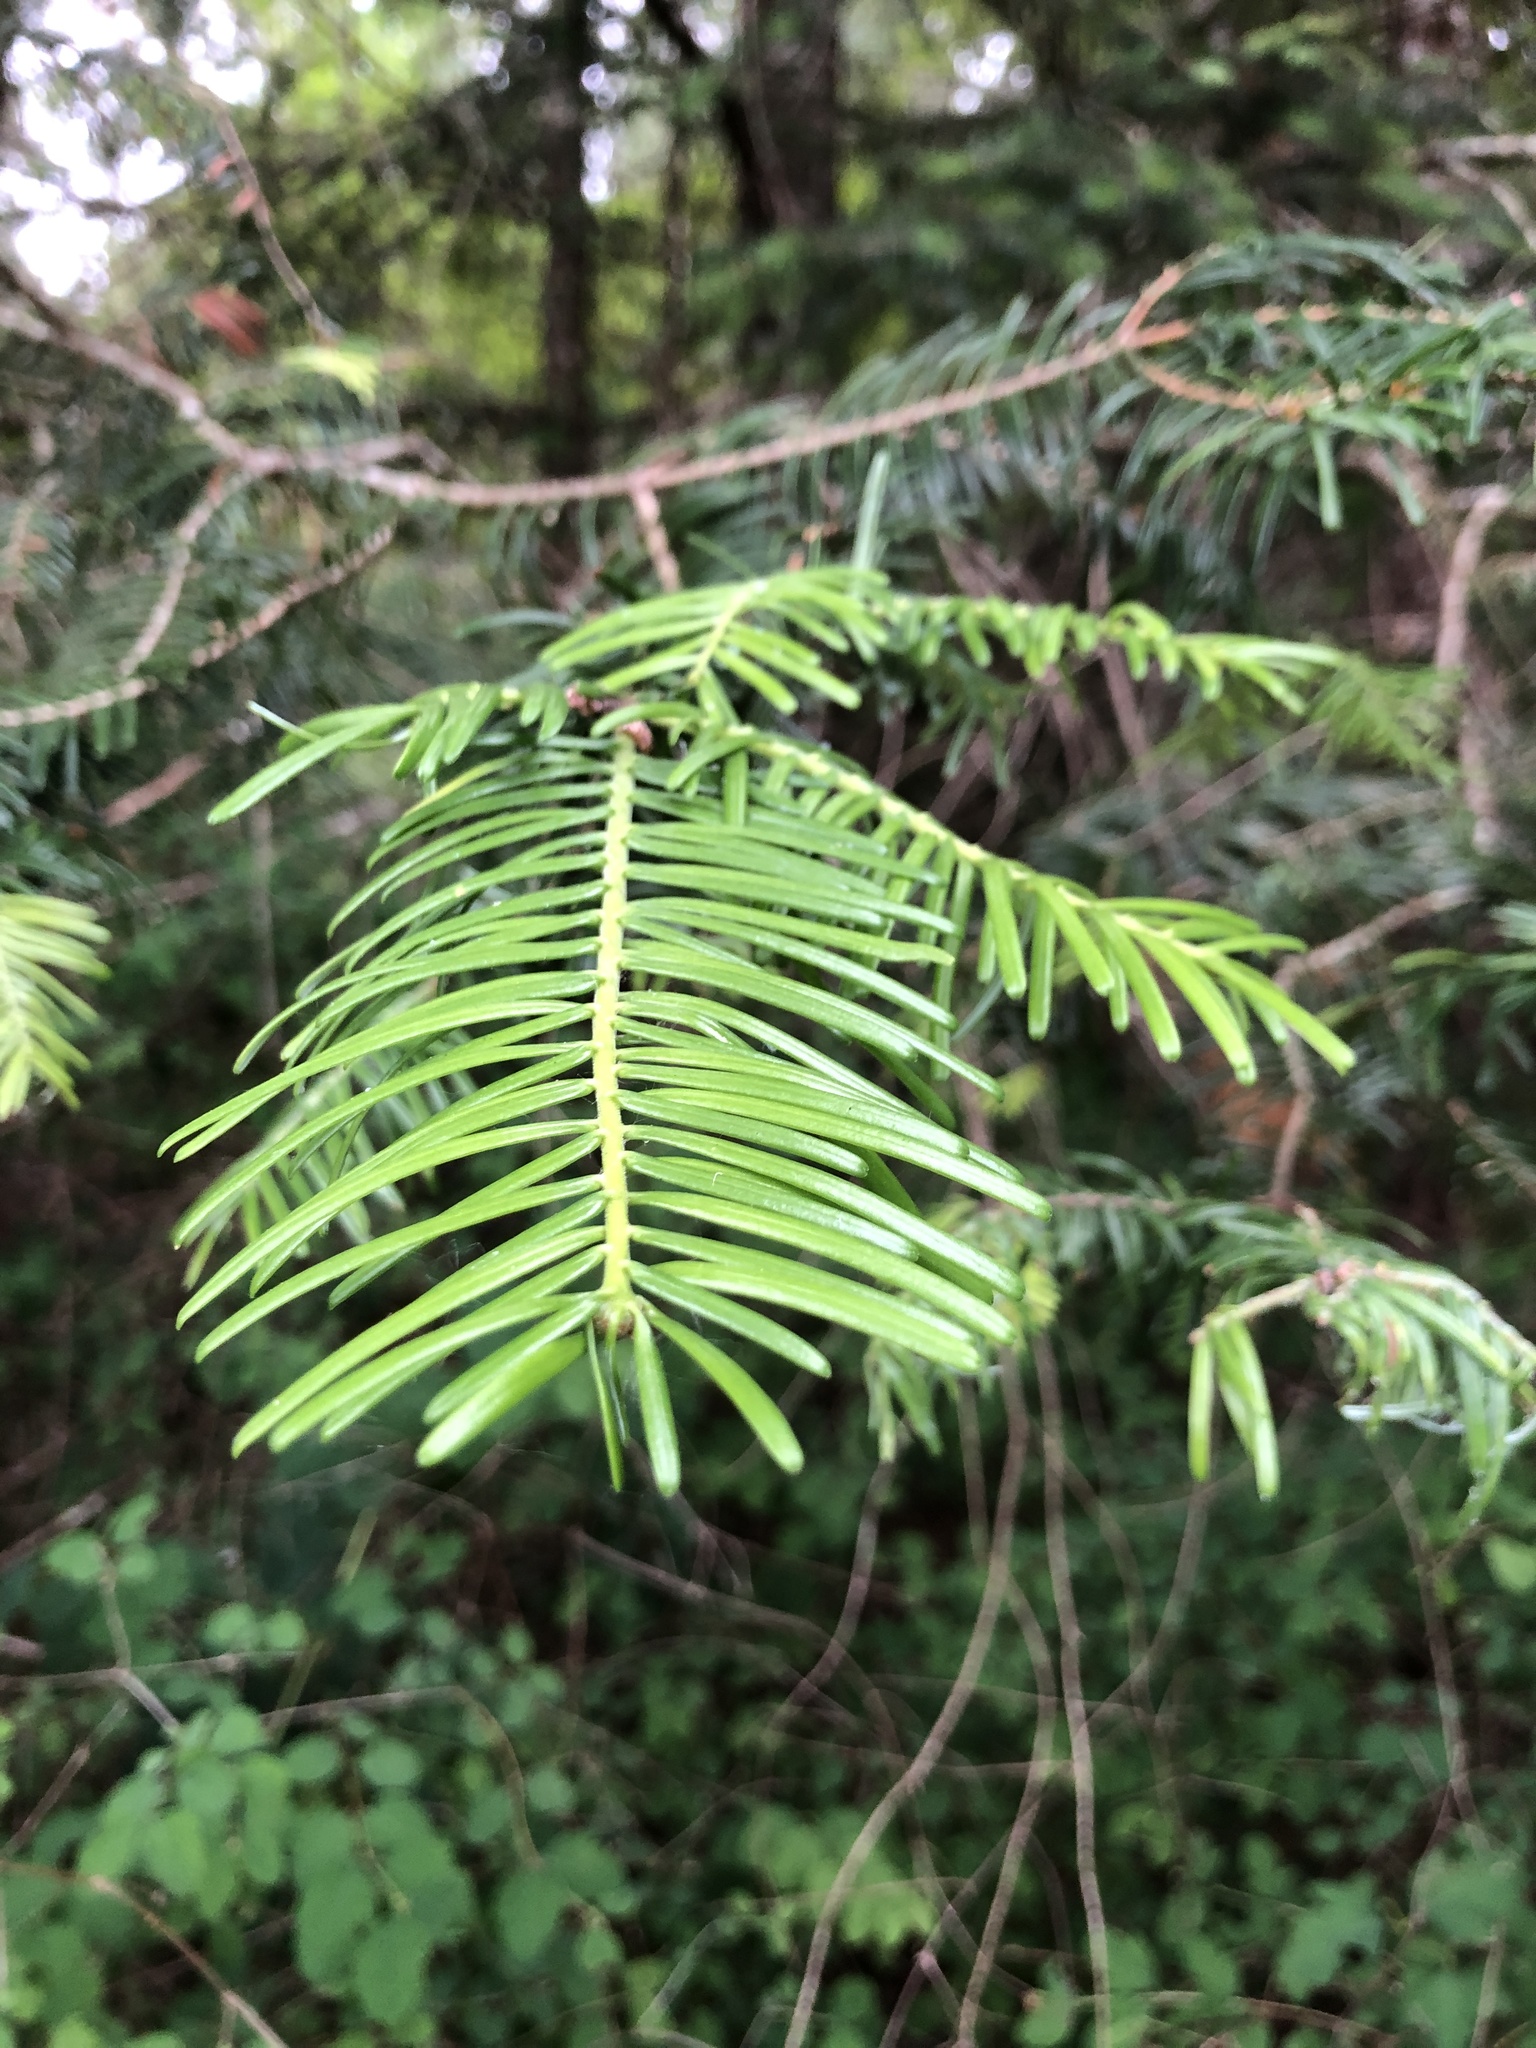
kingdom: Plantae
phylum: Tracheophyta
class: Pinopsida
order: Pinales
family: Pinaceae
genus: Abies
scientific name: Abies grandis
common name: Giant fir
